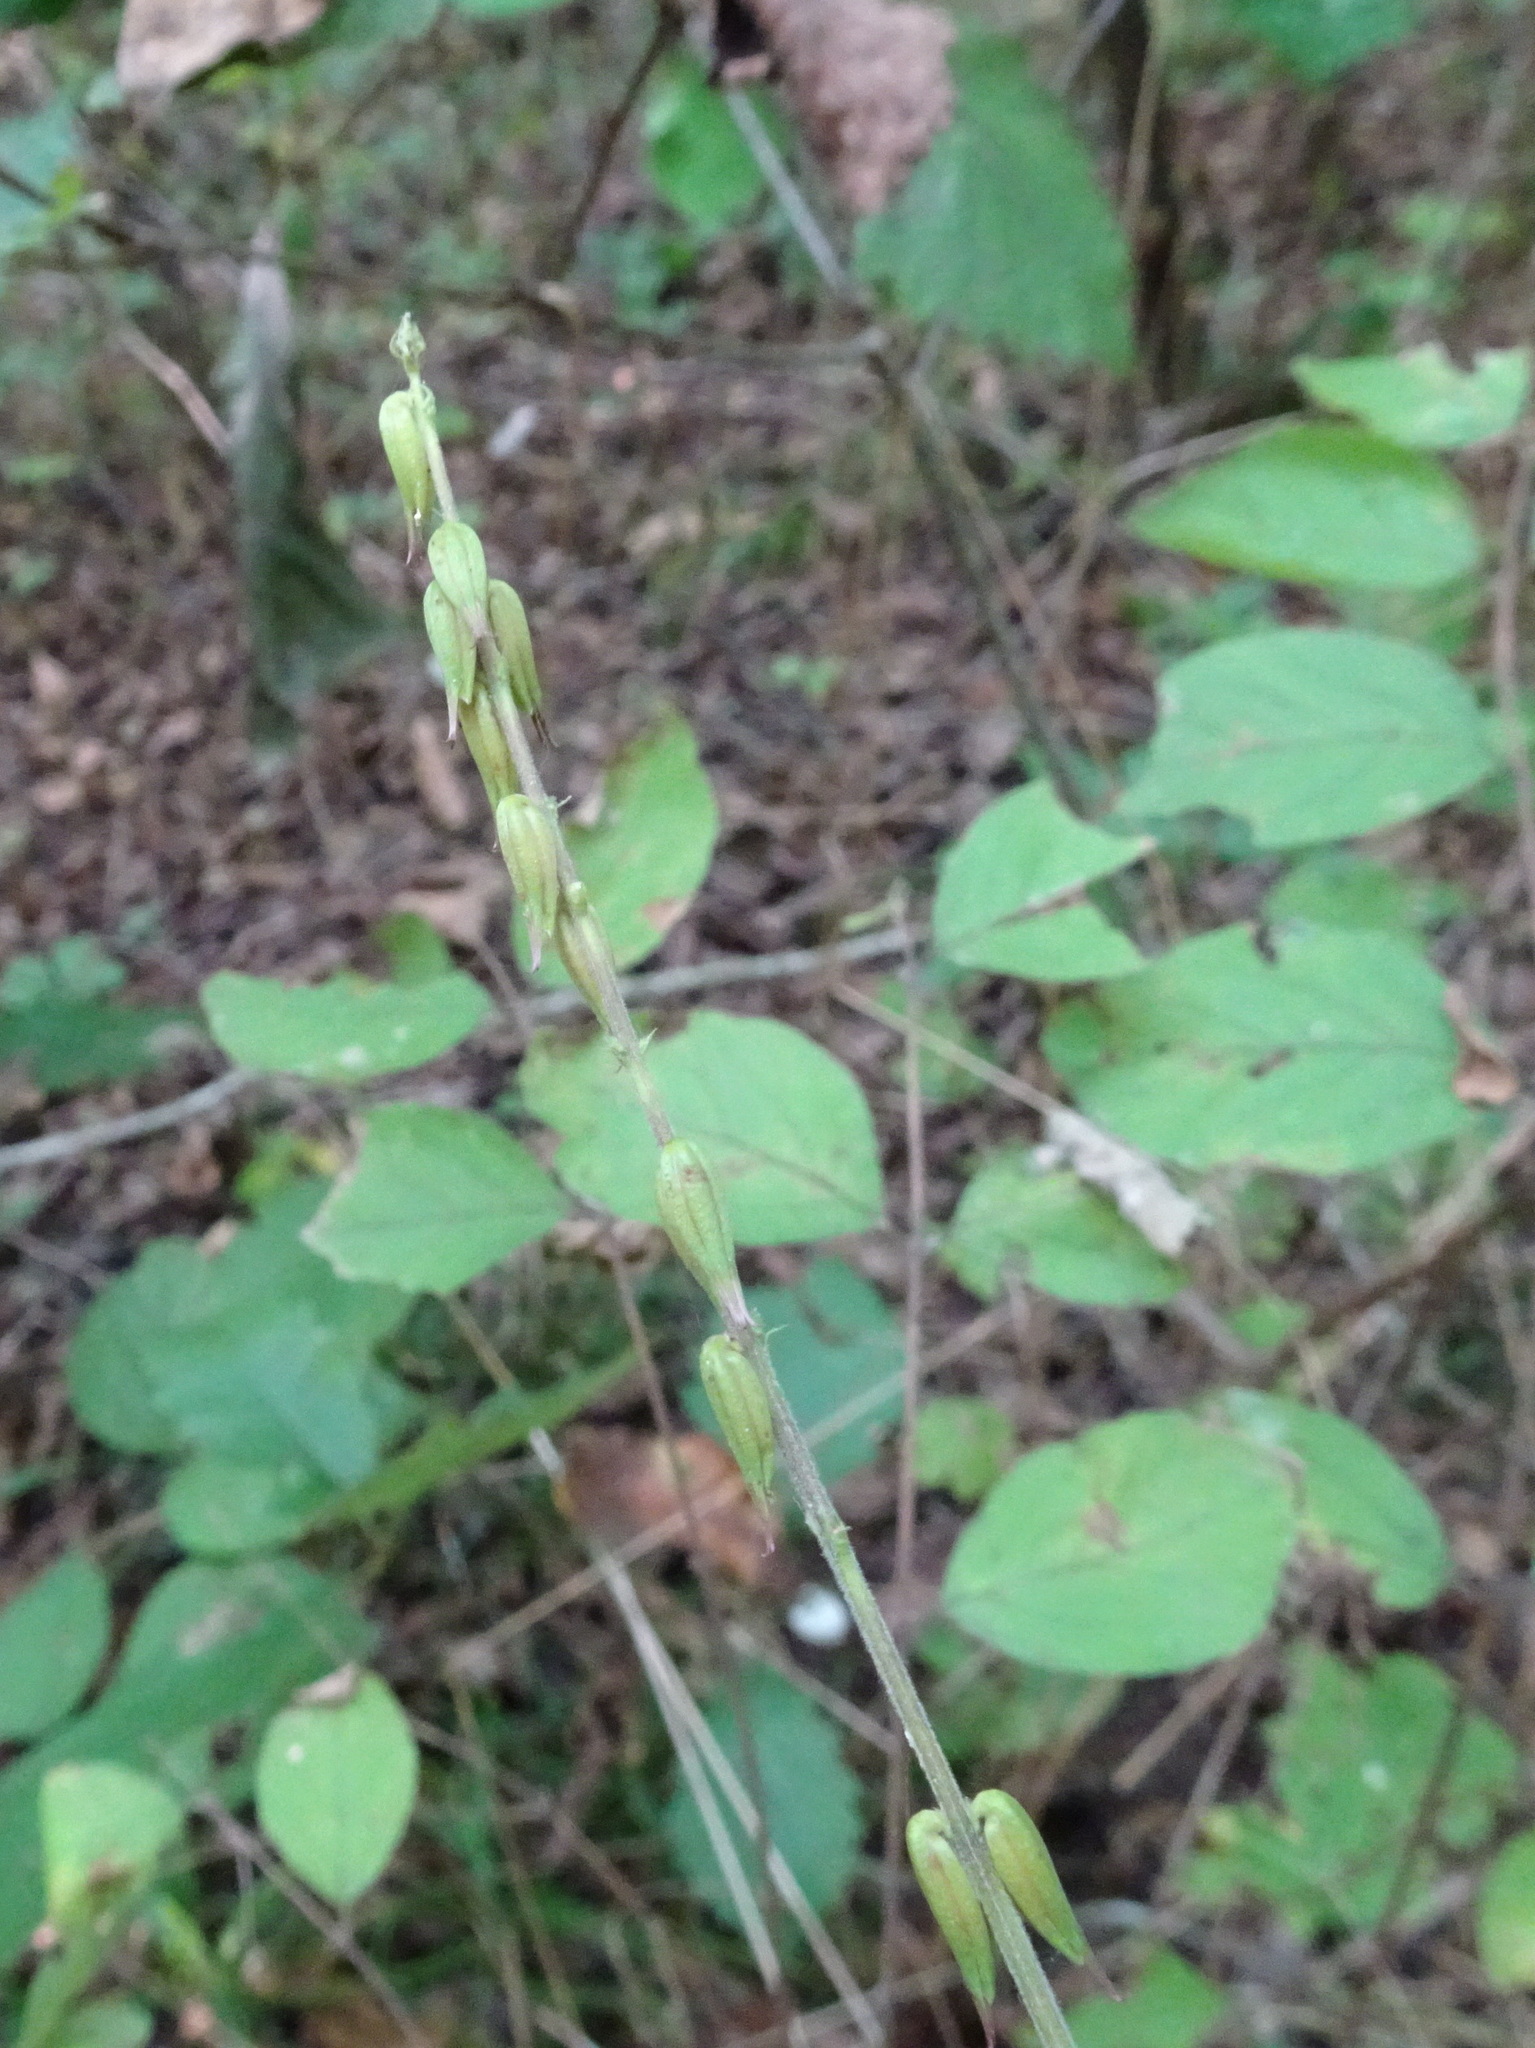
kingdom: Plantae
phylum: Tracheophyta
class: Magnoliopsida
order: Lamiales
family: Phrymaceae
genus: Phryma
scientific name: Phryma leptostachya
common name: American lopseed
